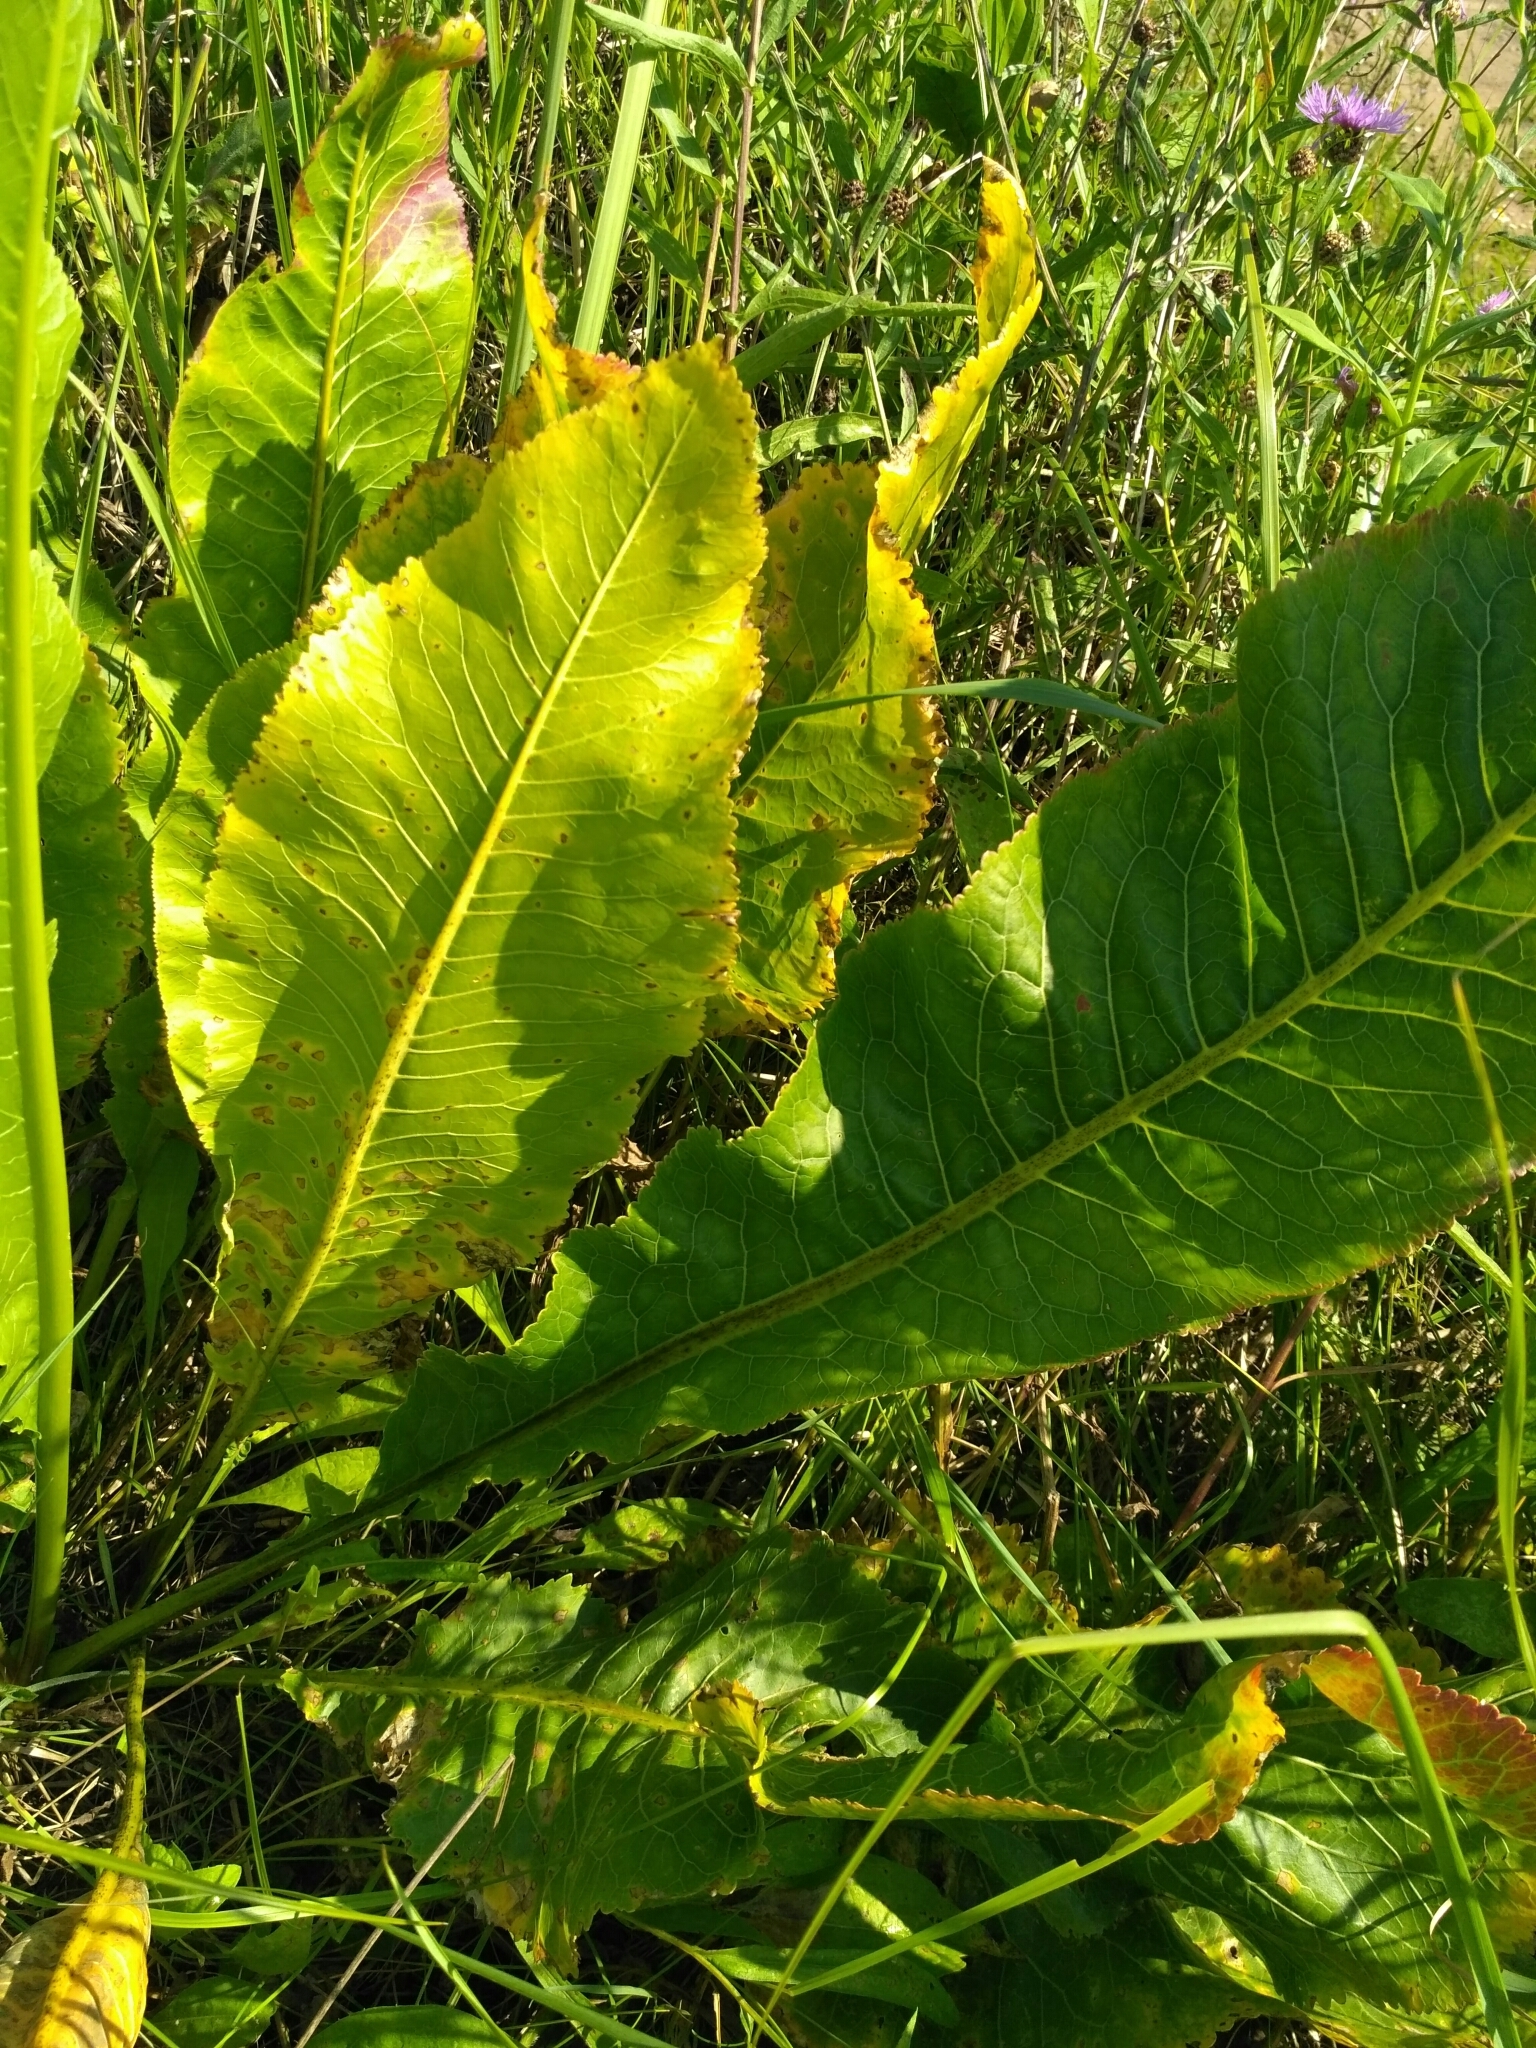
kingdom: Plantae
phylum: Tracheophyta
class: Magnoliopsida
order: Brassicales
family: Brassicaceae
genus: Armoracia
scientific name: Armoracia rusticana
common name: Horseradish
